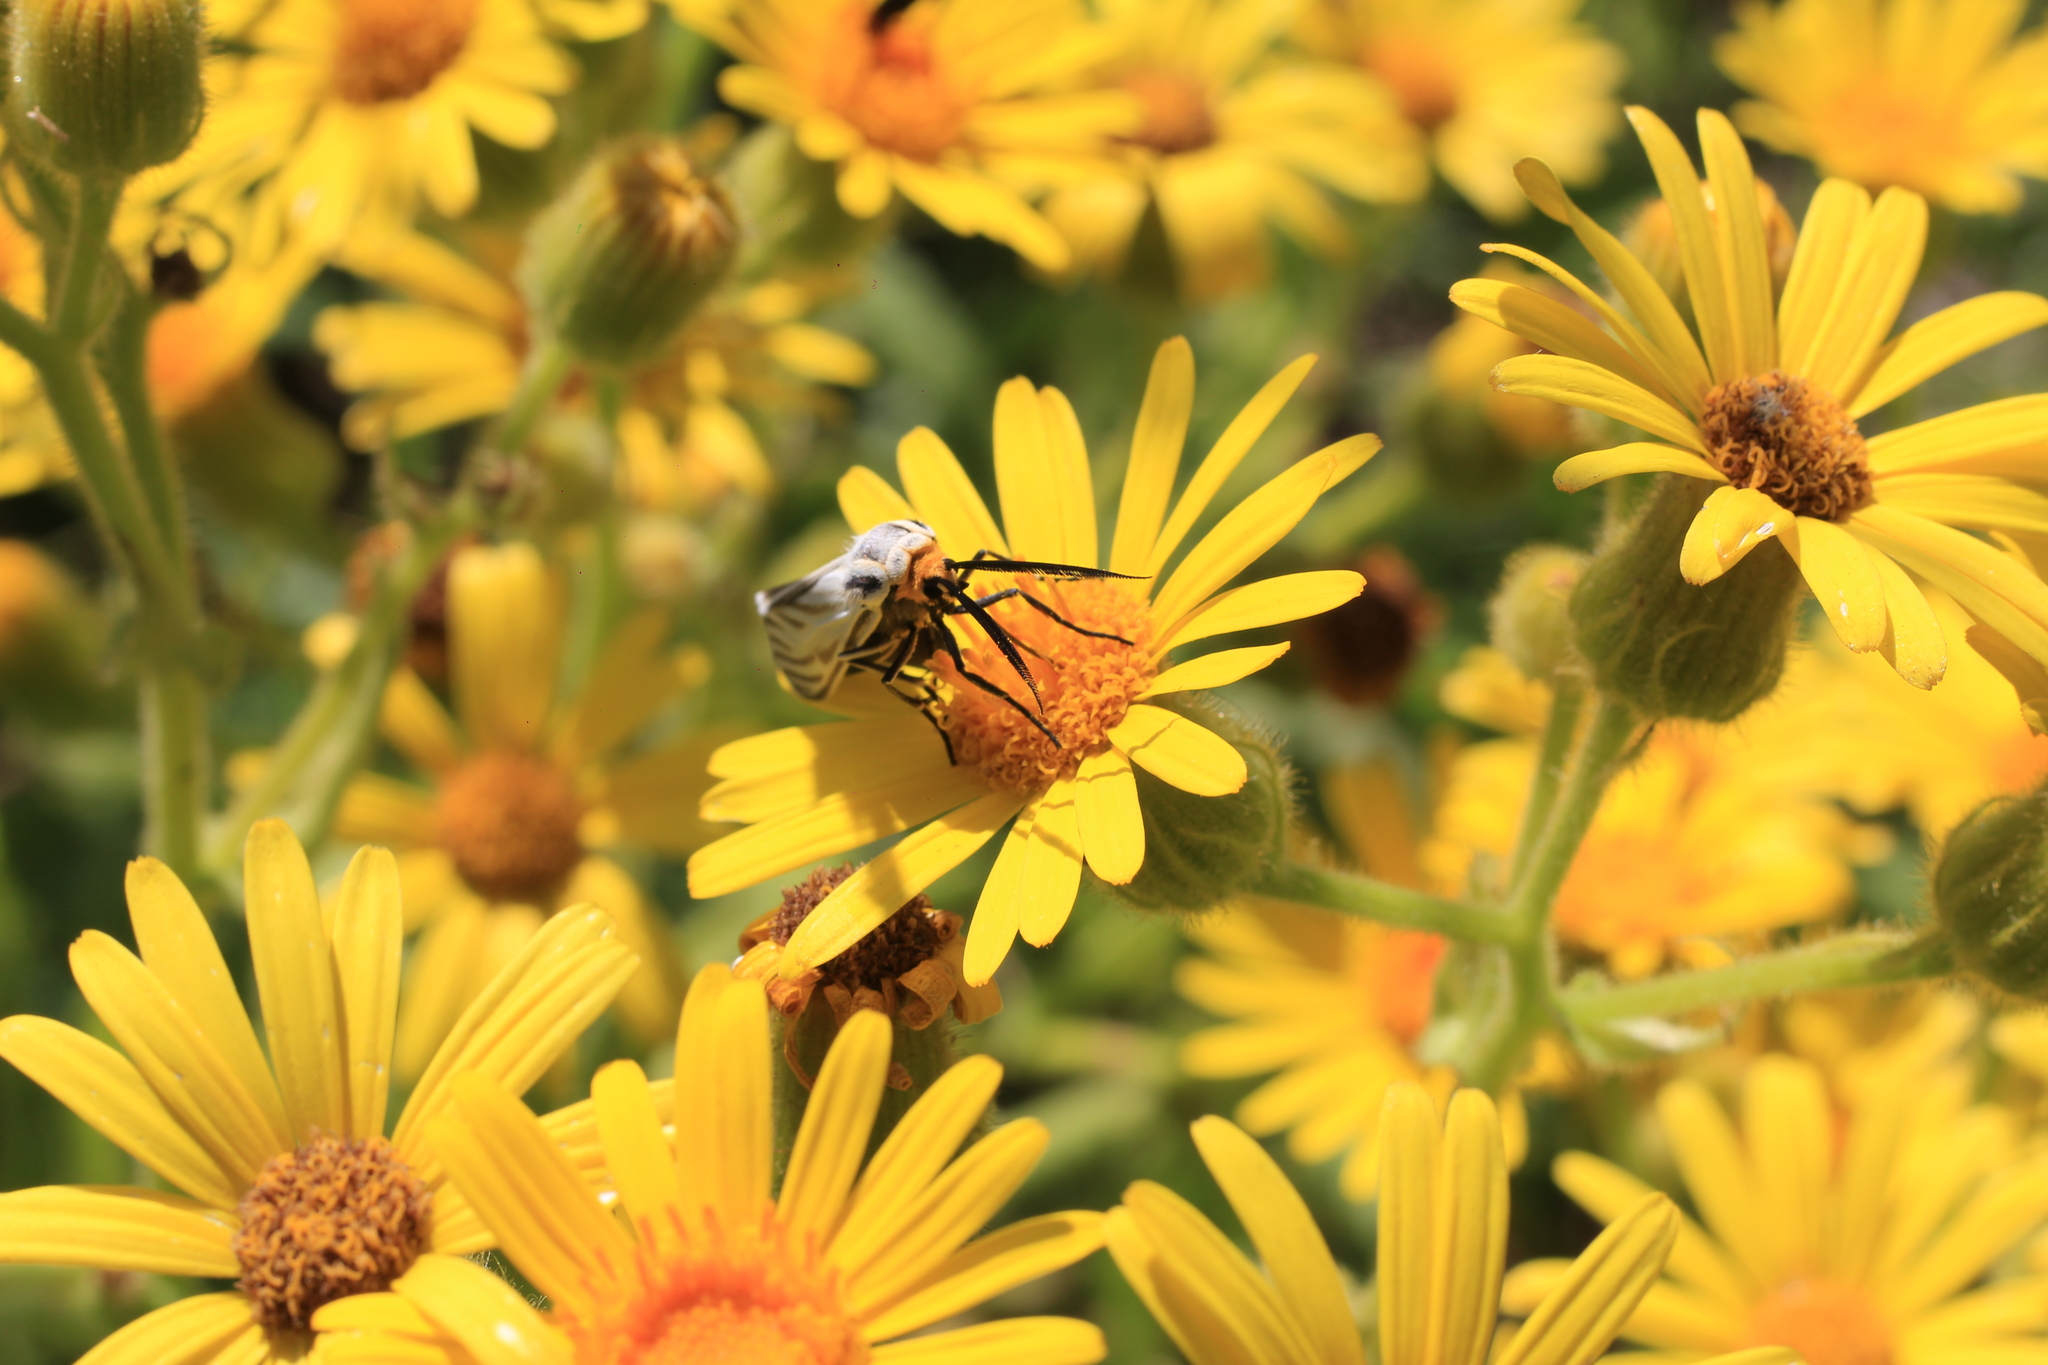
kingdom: Animalia
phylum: Arthropoda
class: Insecta
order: Lepidoptera
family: Erebidae
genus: Ctenucha
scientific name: Ctenucha vittigerum
